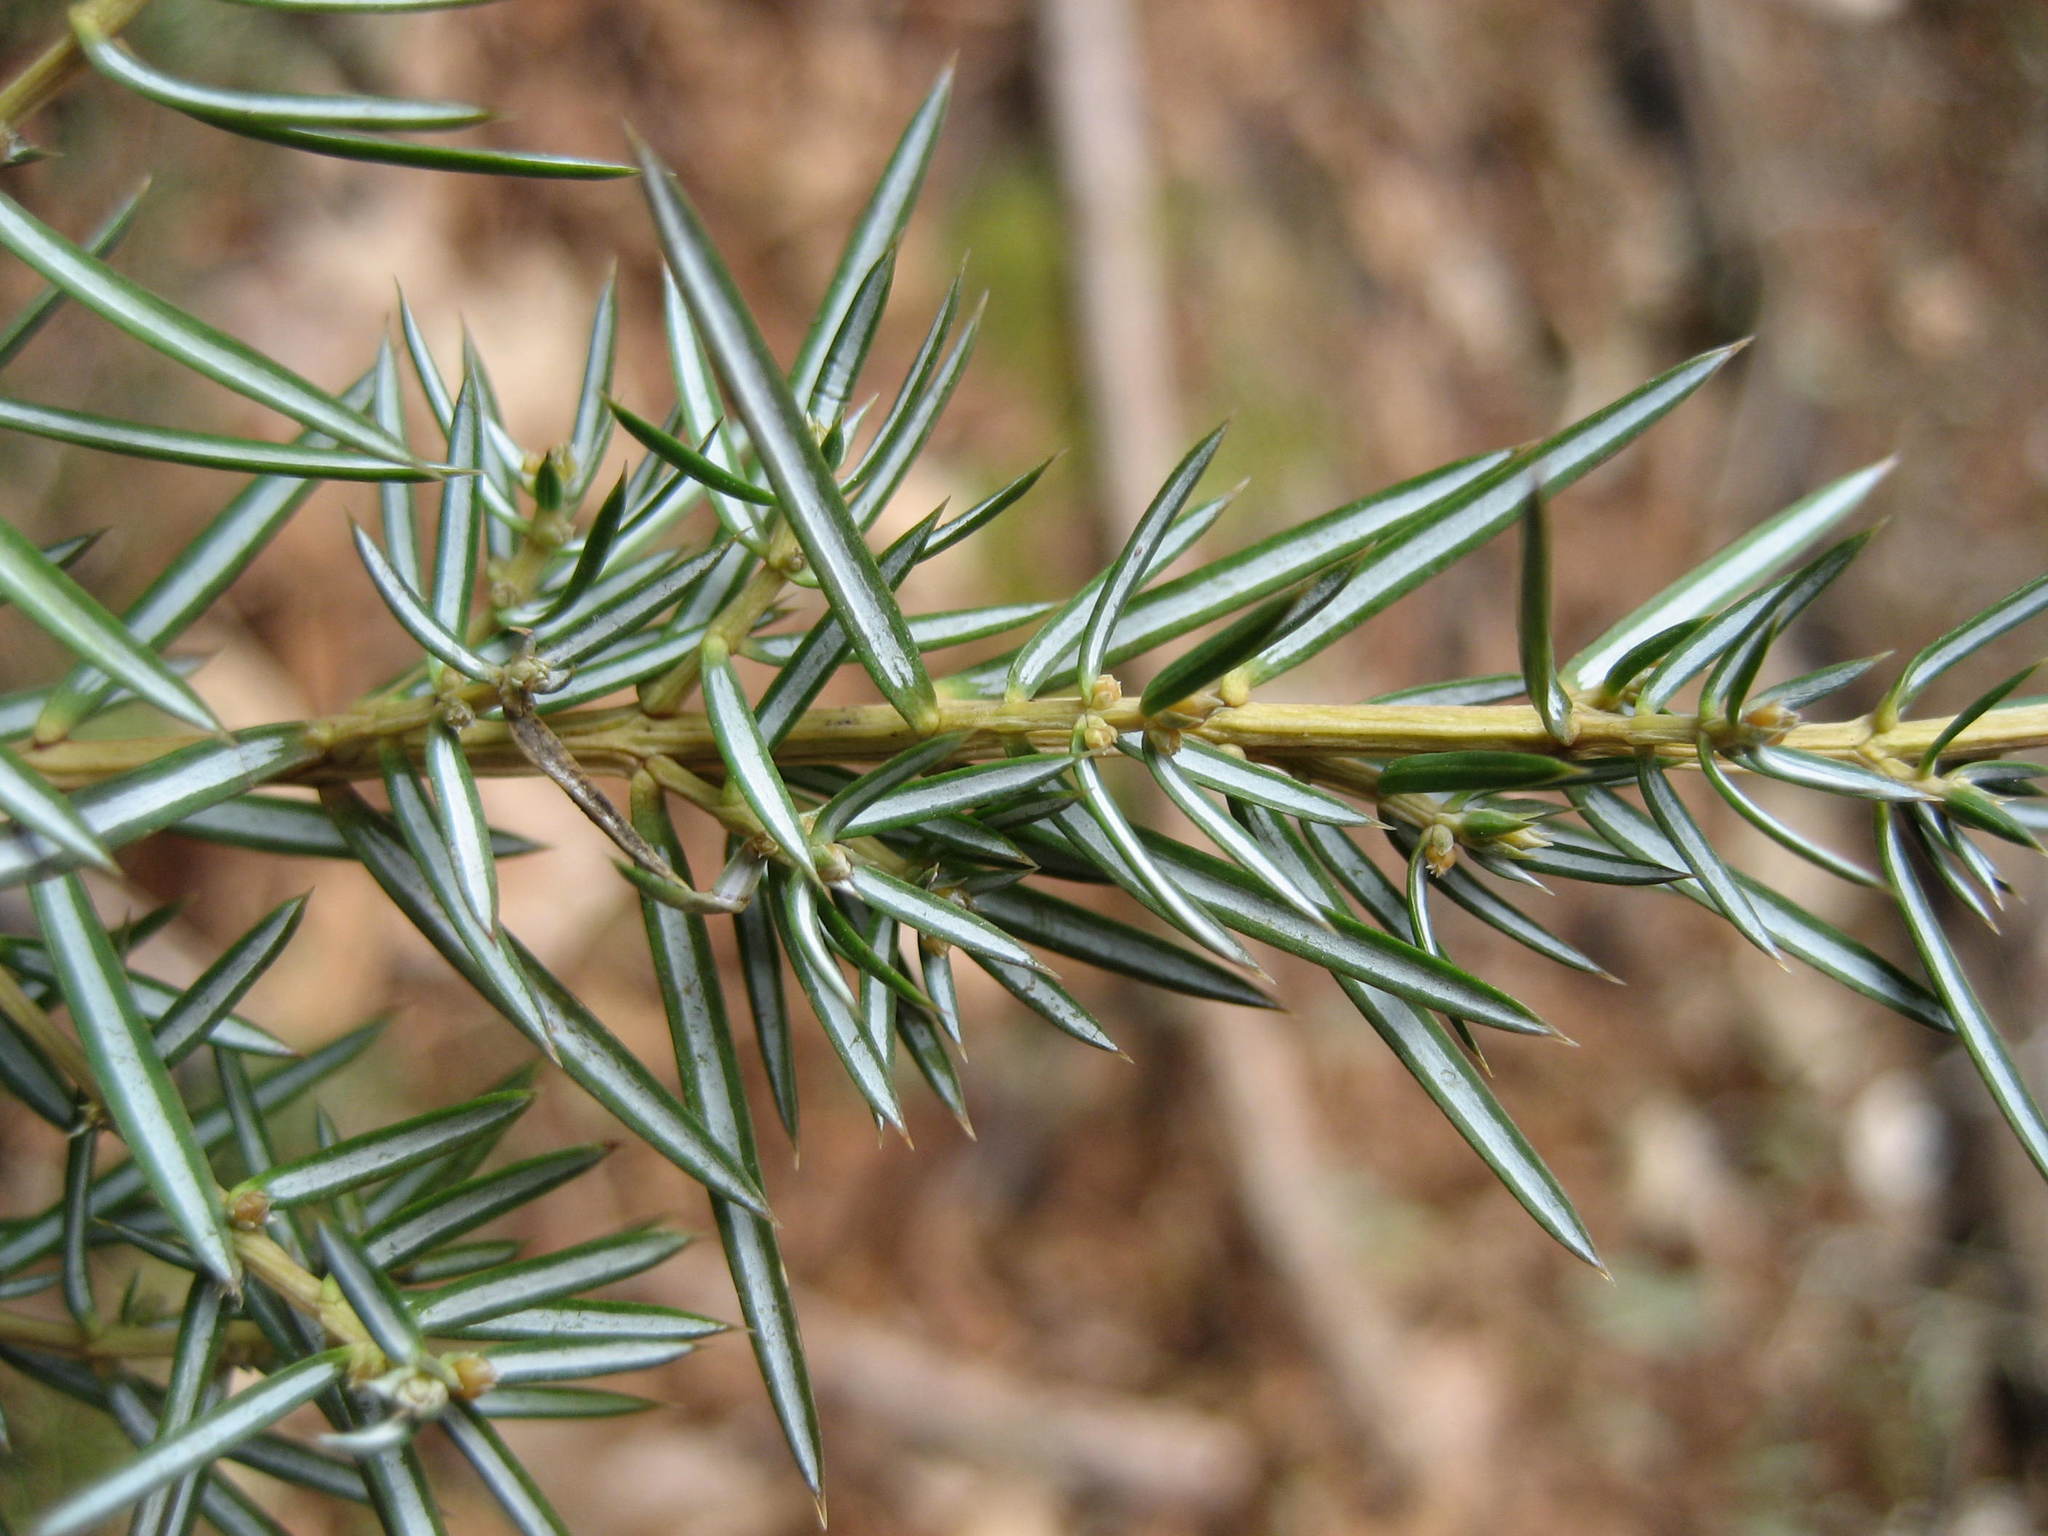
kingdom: Plantae
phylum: Tracheophyta
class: Pinopsida
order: Pinales
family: Cupressaceae
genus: Juniperus
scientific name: Juniperus communis
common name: Common juniper
